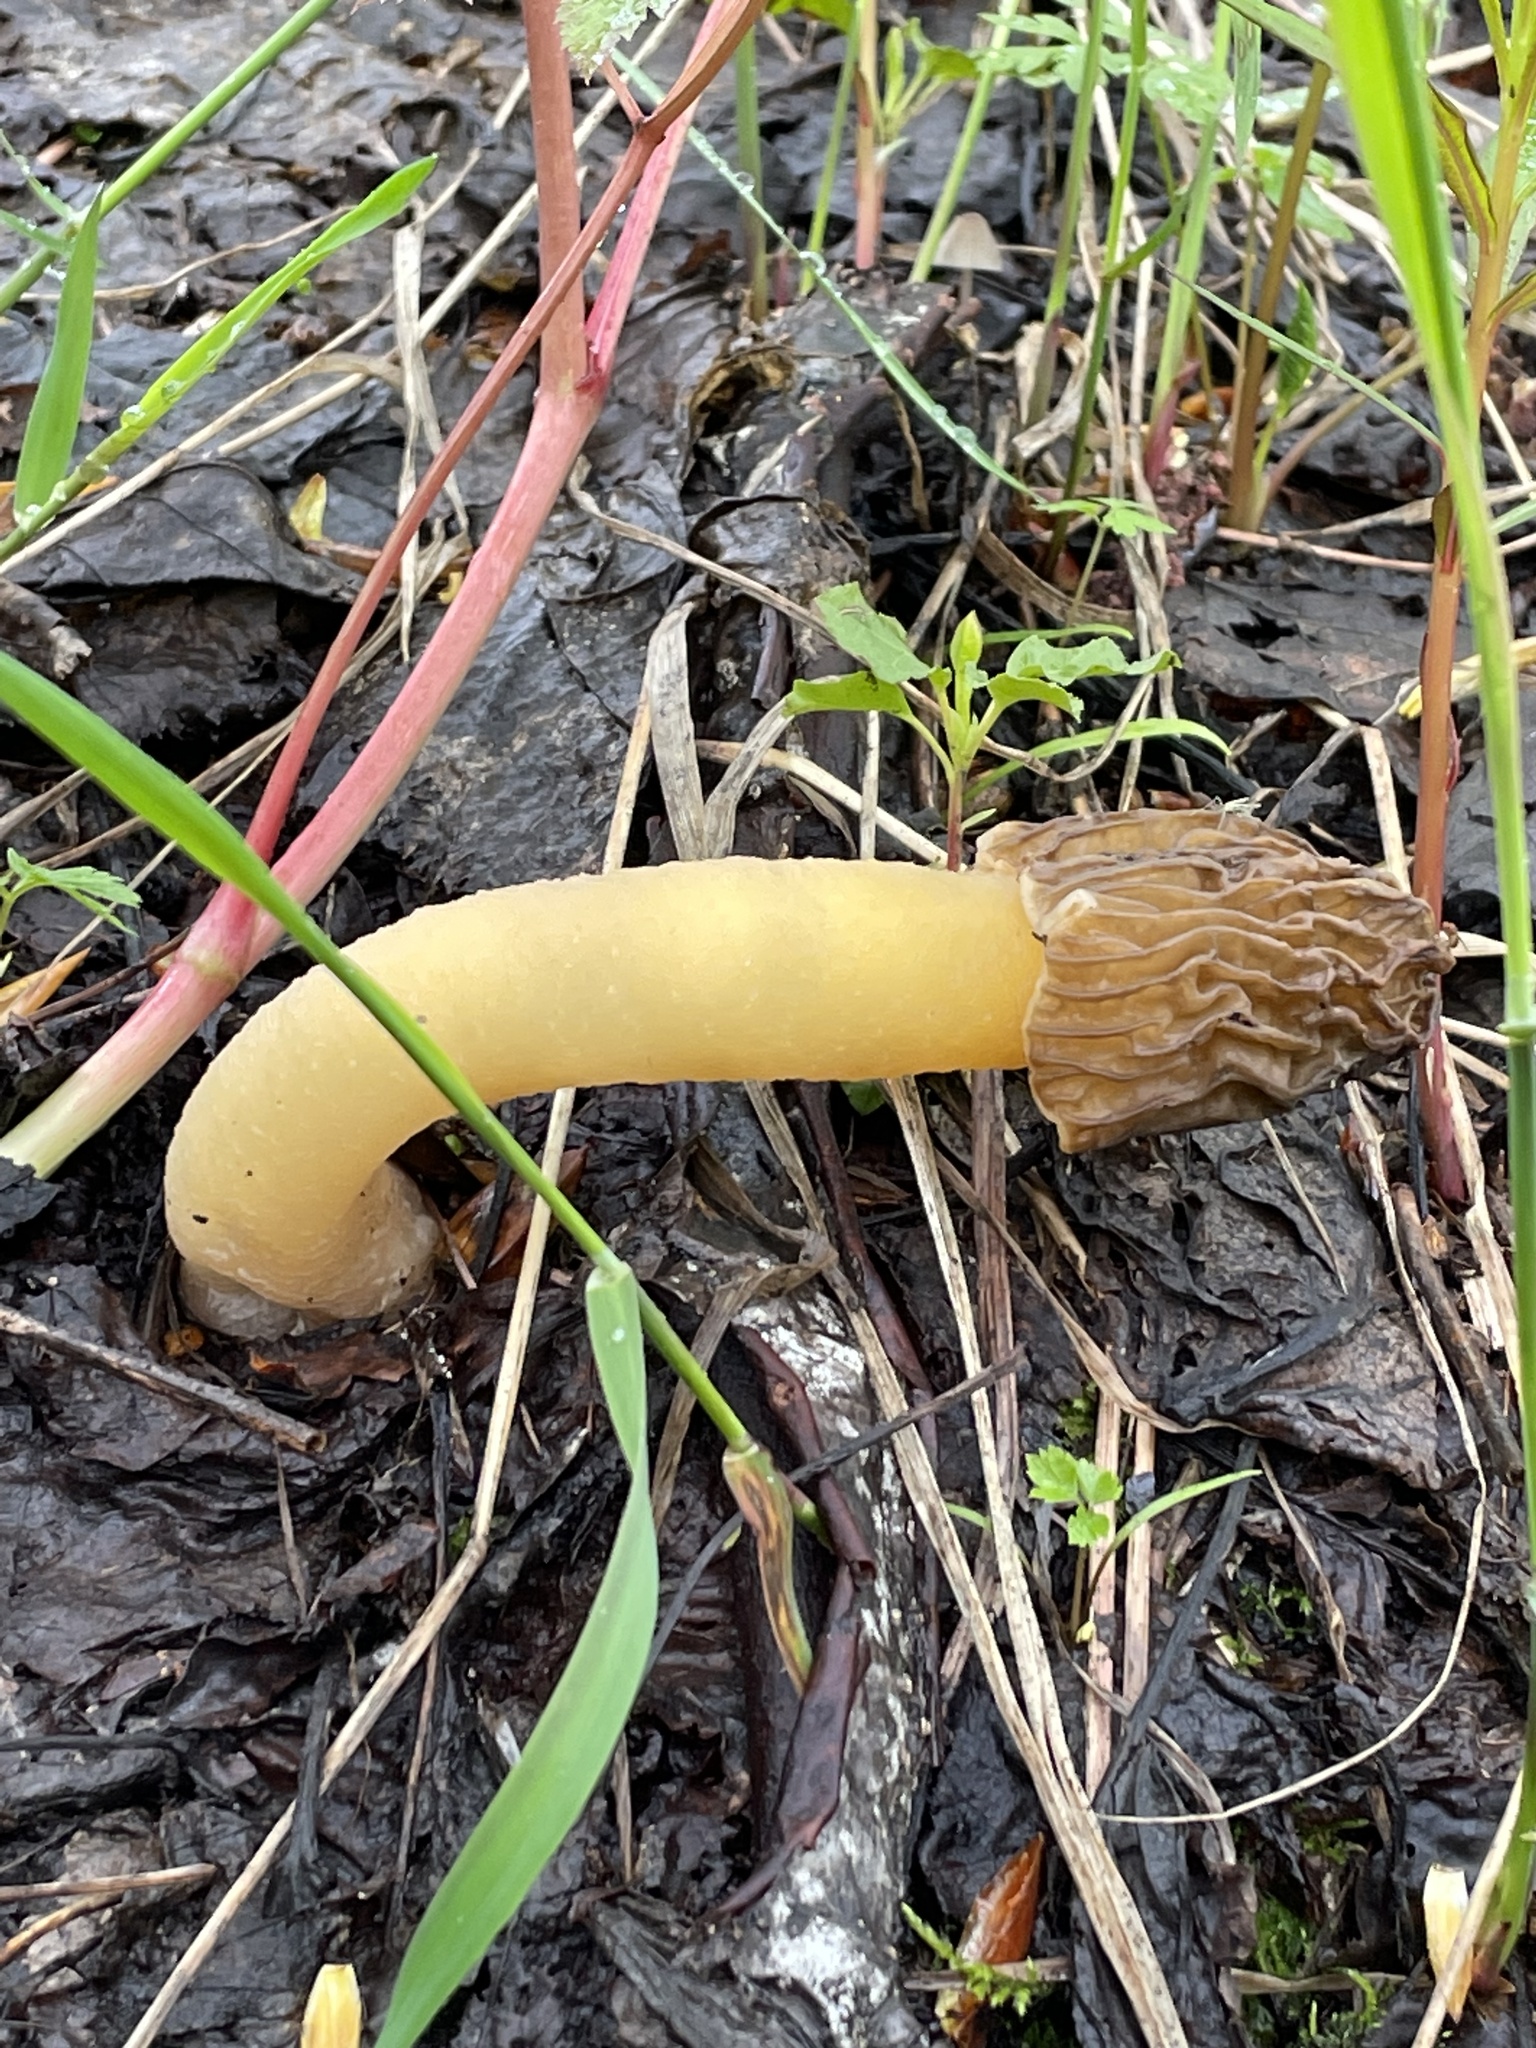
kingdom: Fungi
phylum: Ascomycota
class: Pezizomycetes
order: Pezizales
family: Morchellaceae
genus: Verpa
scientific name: Verpa bohemica
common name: Wrinkled thimble morel
